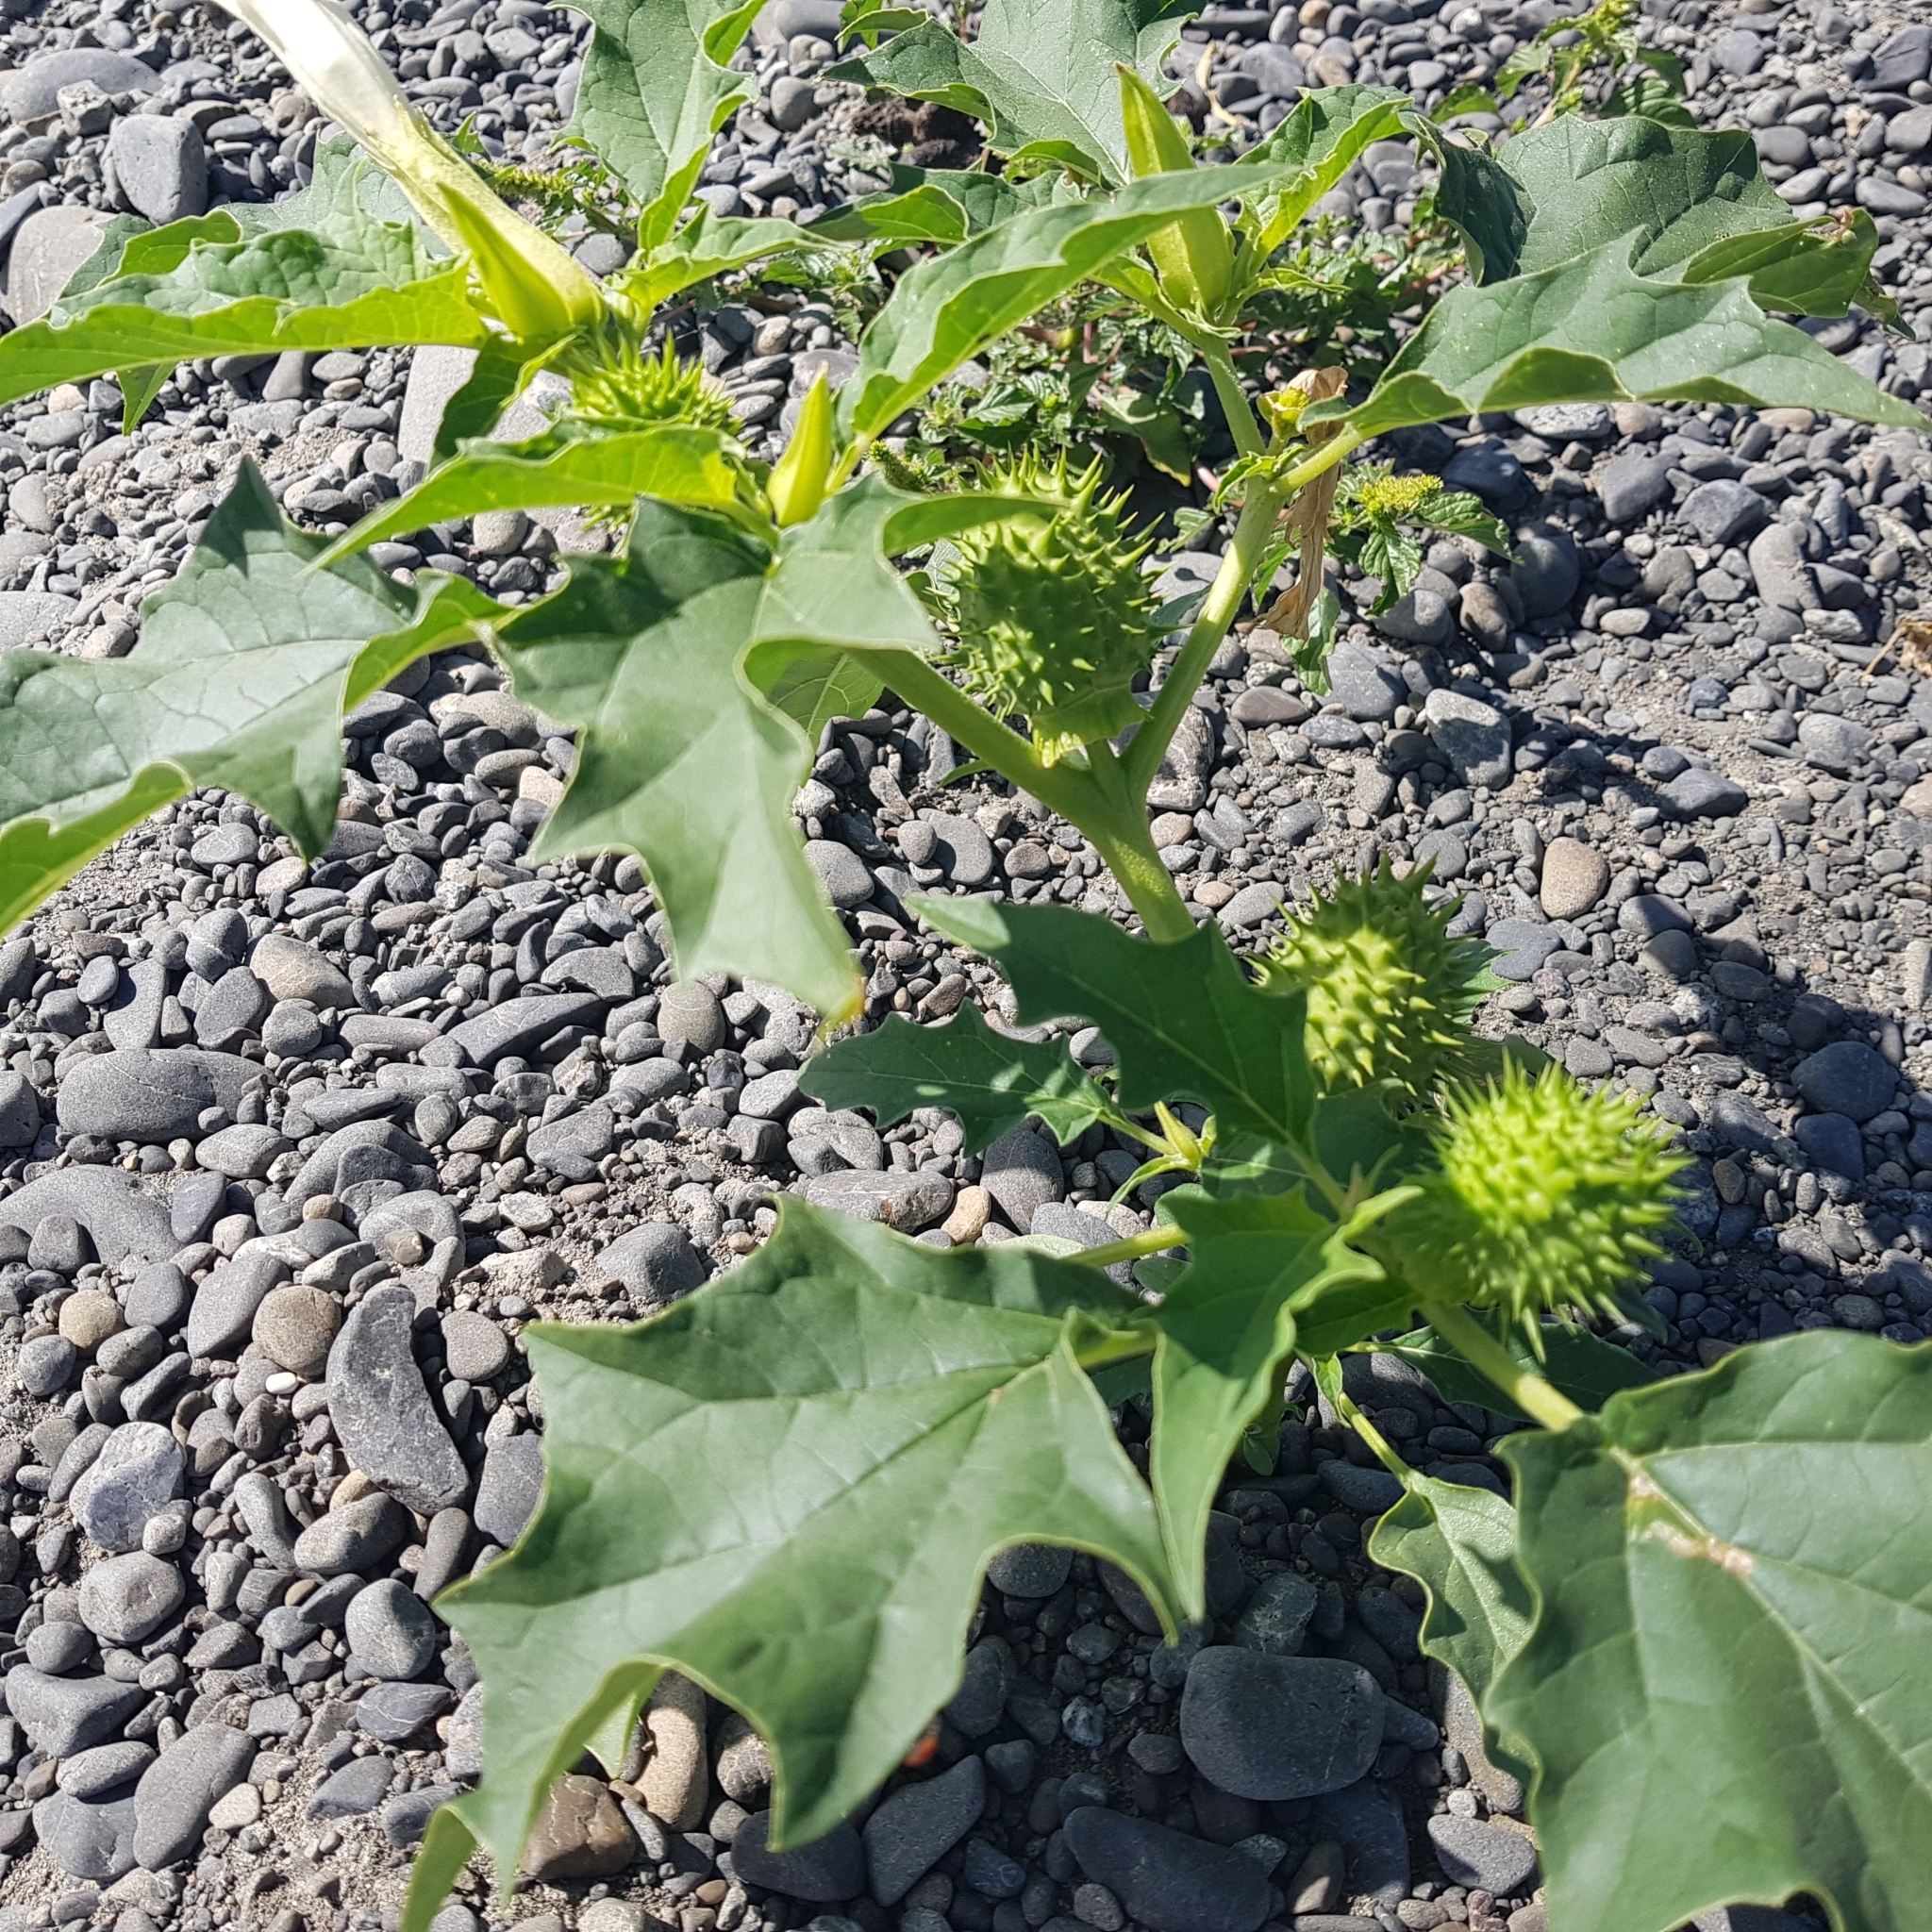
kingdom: Plantae
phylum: Tracheophyta
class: Magnoliopsida
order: Solanales
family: Solanaceae
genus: Datura
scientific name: Datura stramonium
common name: Thorn-apple
